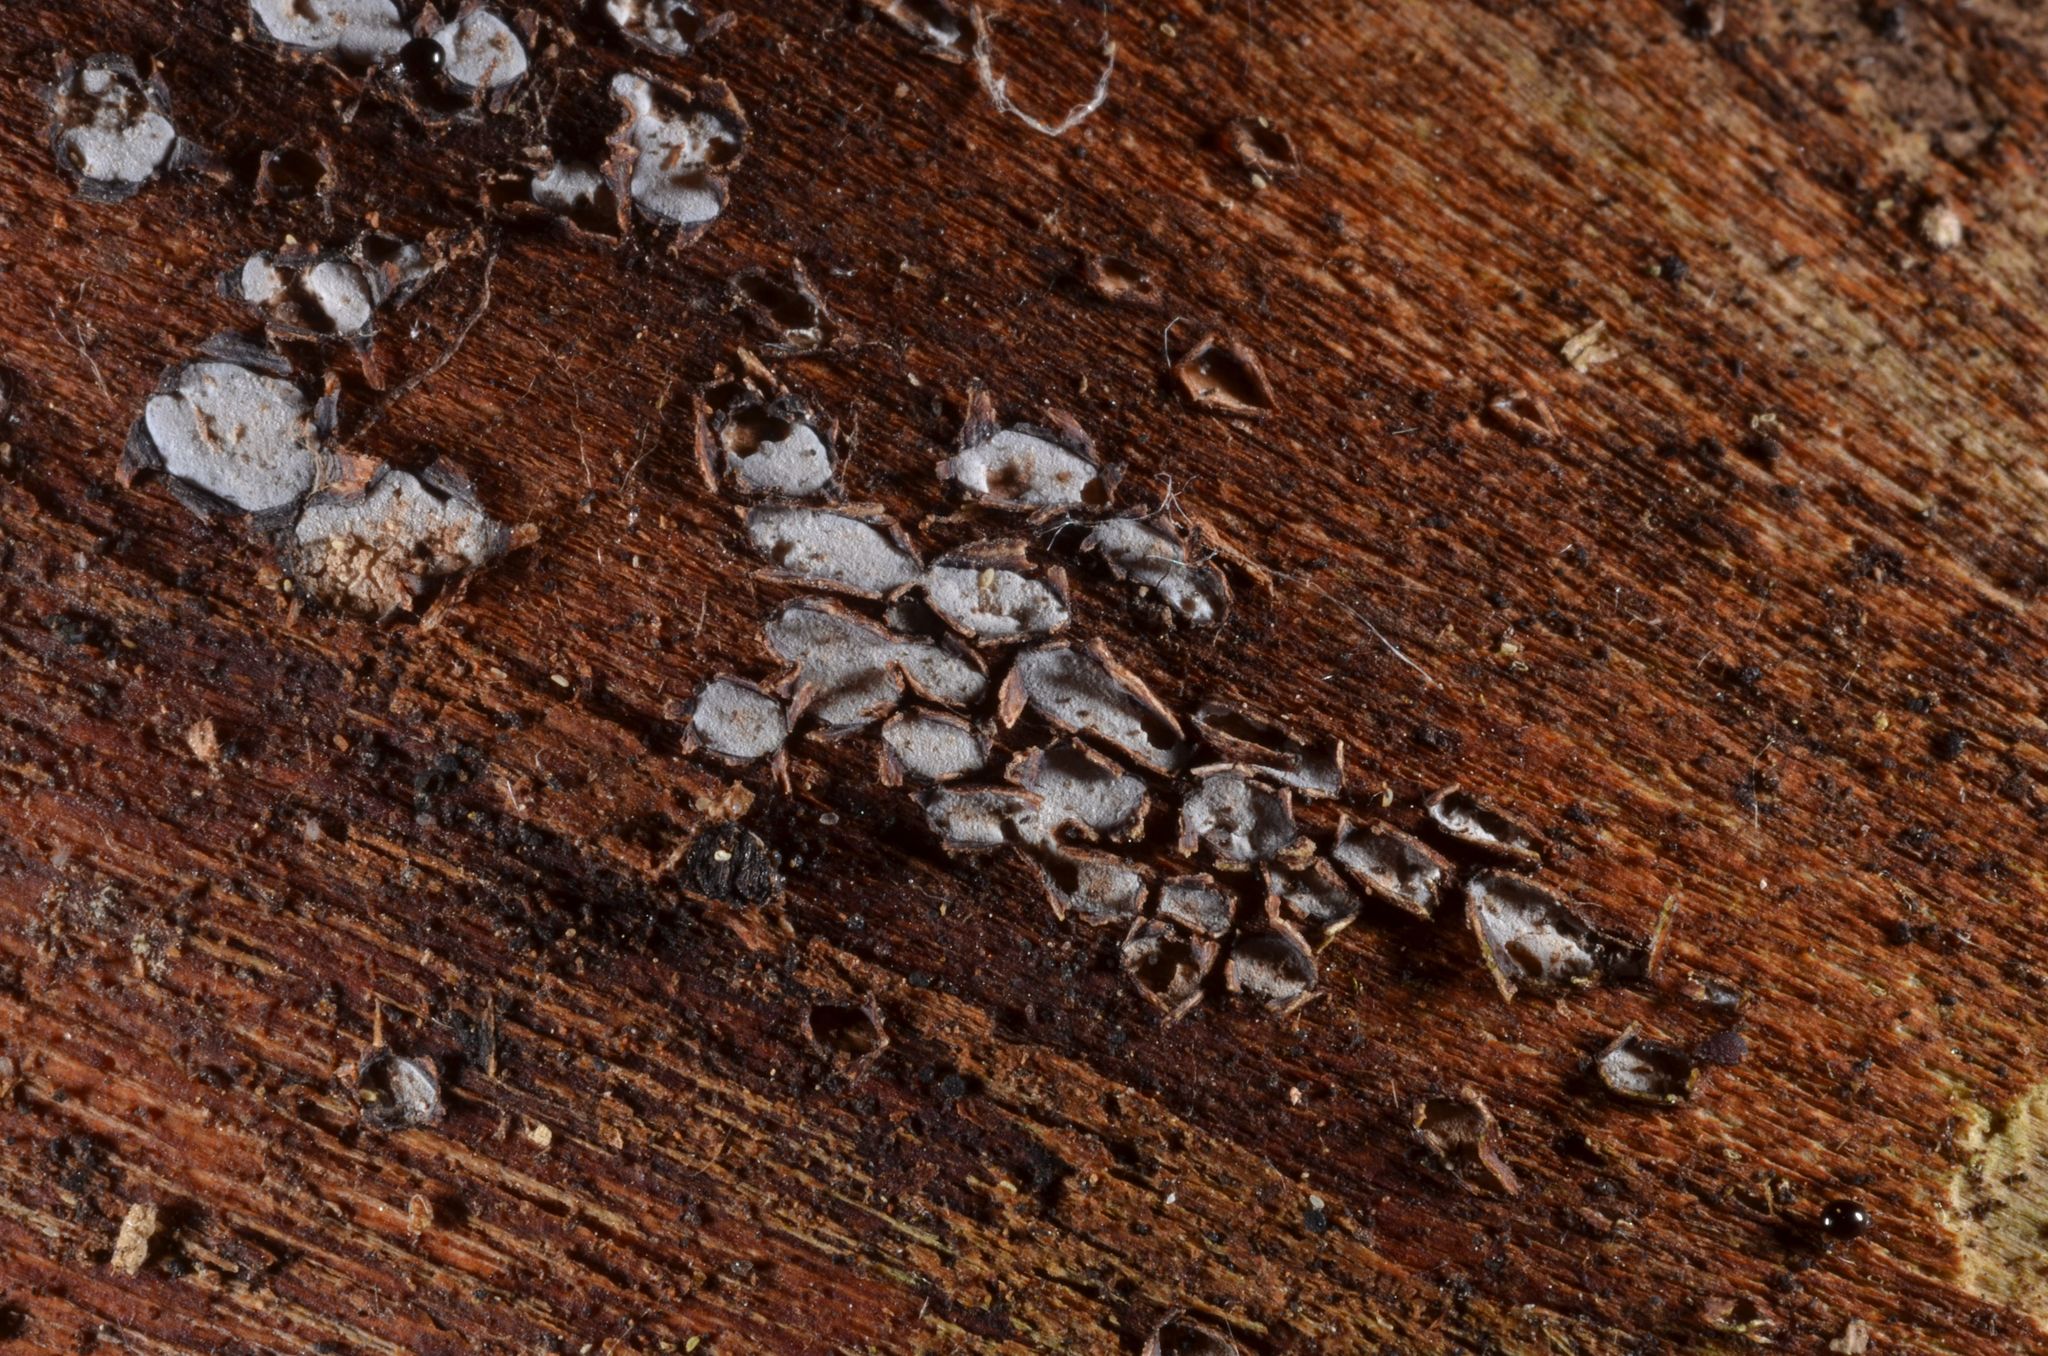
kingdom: Fungi
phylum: Ascomycota
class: Leotiomycetes
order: Chaetomellales
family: Marthamycetaceae
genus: Propolis
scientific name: Propolis farinosa
